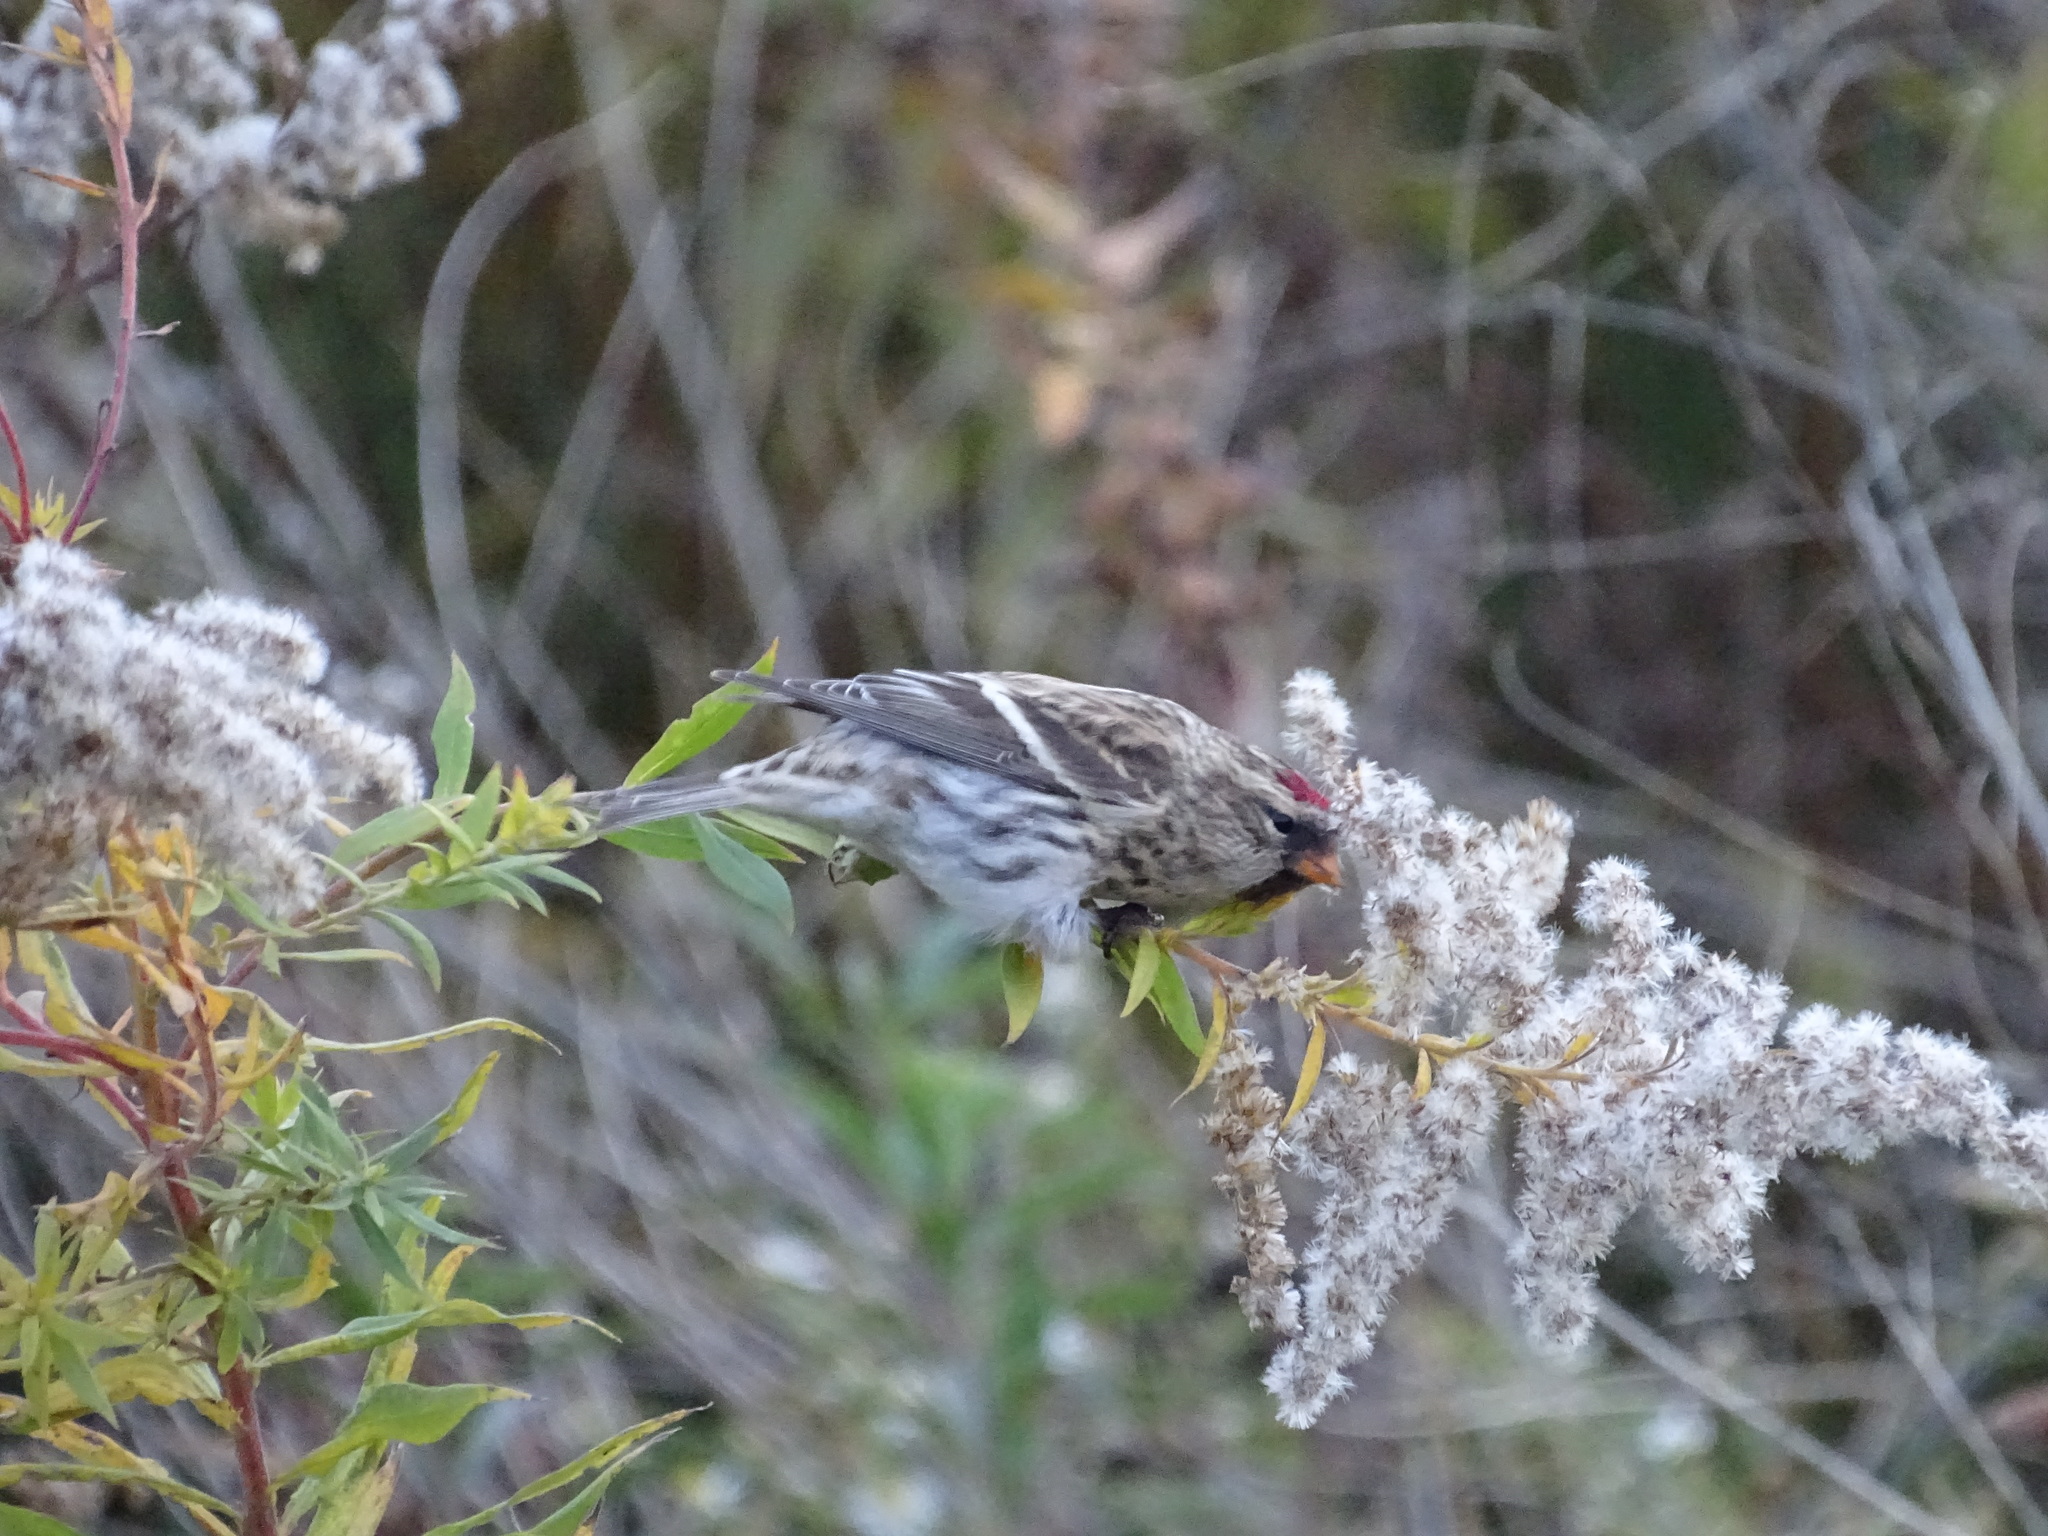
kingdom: Animalia
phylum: Chordata
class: Aves
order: Passeriformes
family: Fringillidae
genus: Acanthis
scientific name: Acanthis flammea
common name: Common redpoll
